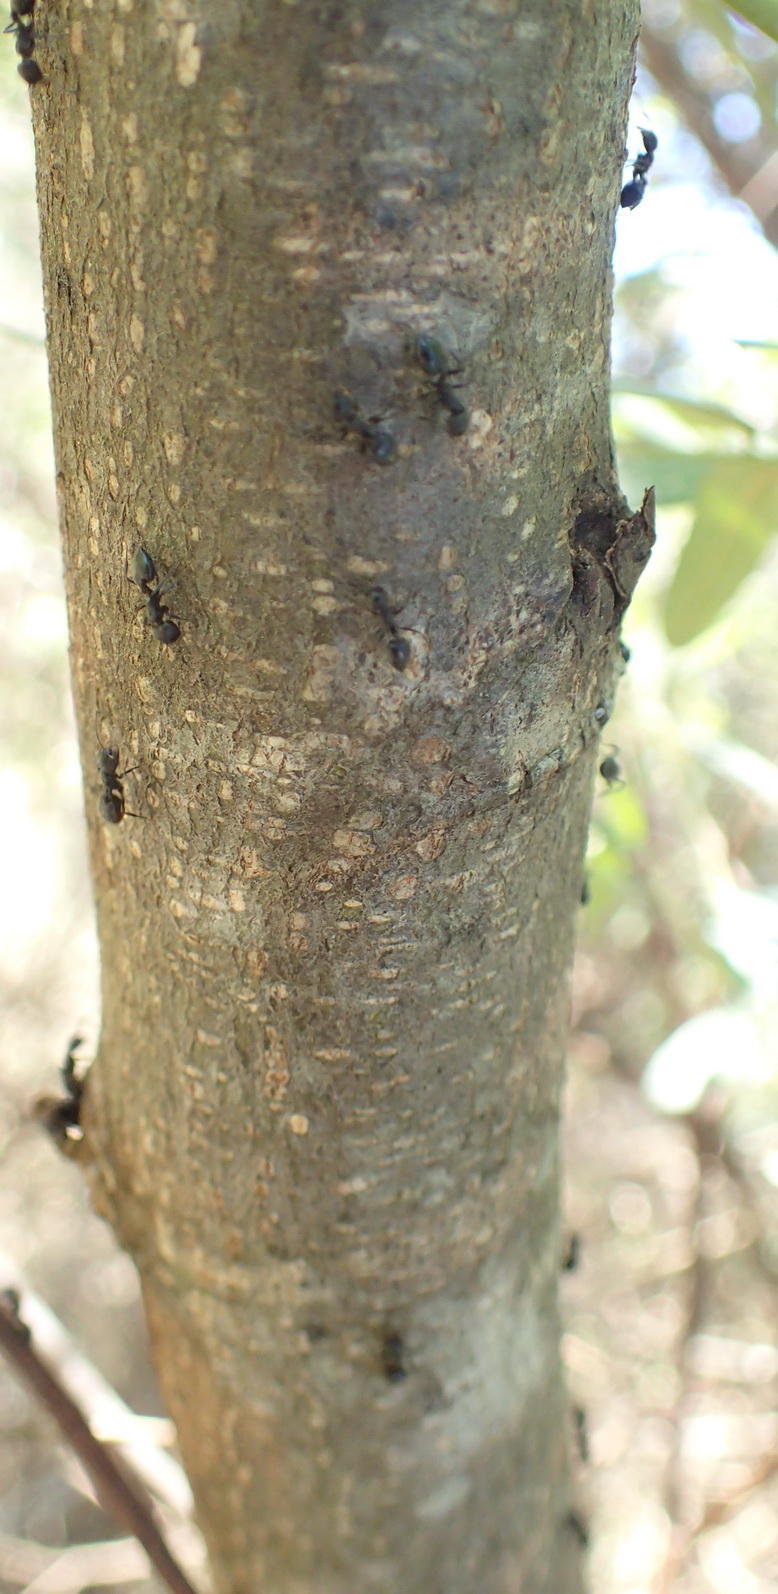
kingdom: Animalia
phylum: Arthropoda
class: Insecta
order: Hymenoptera
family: Formicidae
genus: Crematogaster
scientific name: Crematogaster peringueyi
